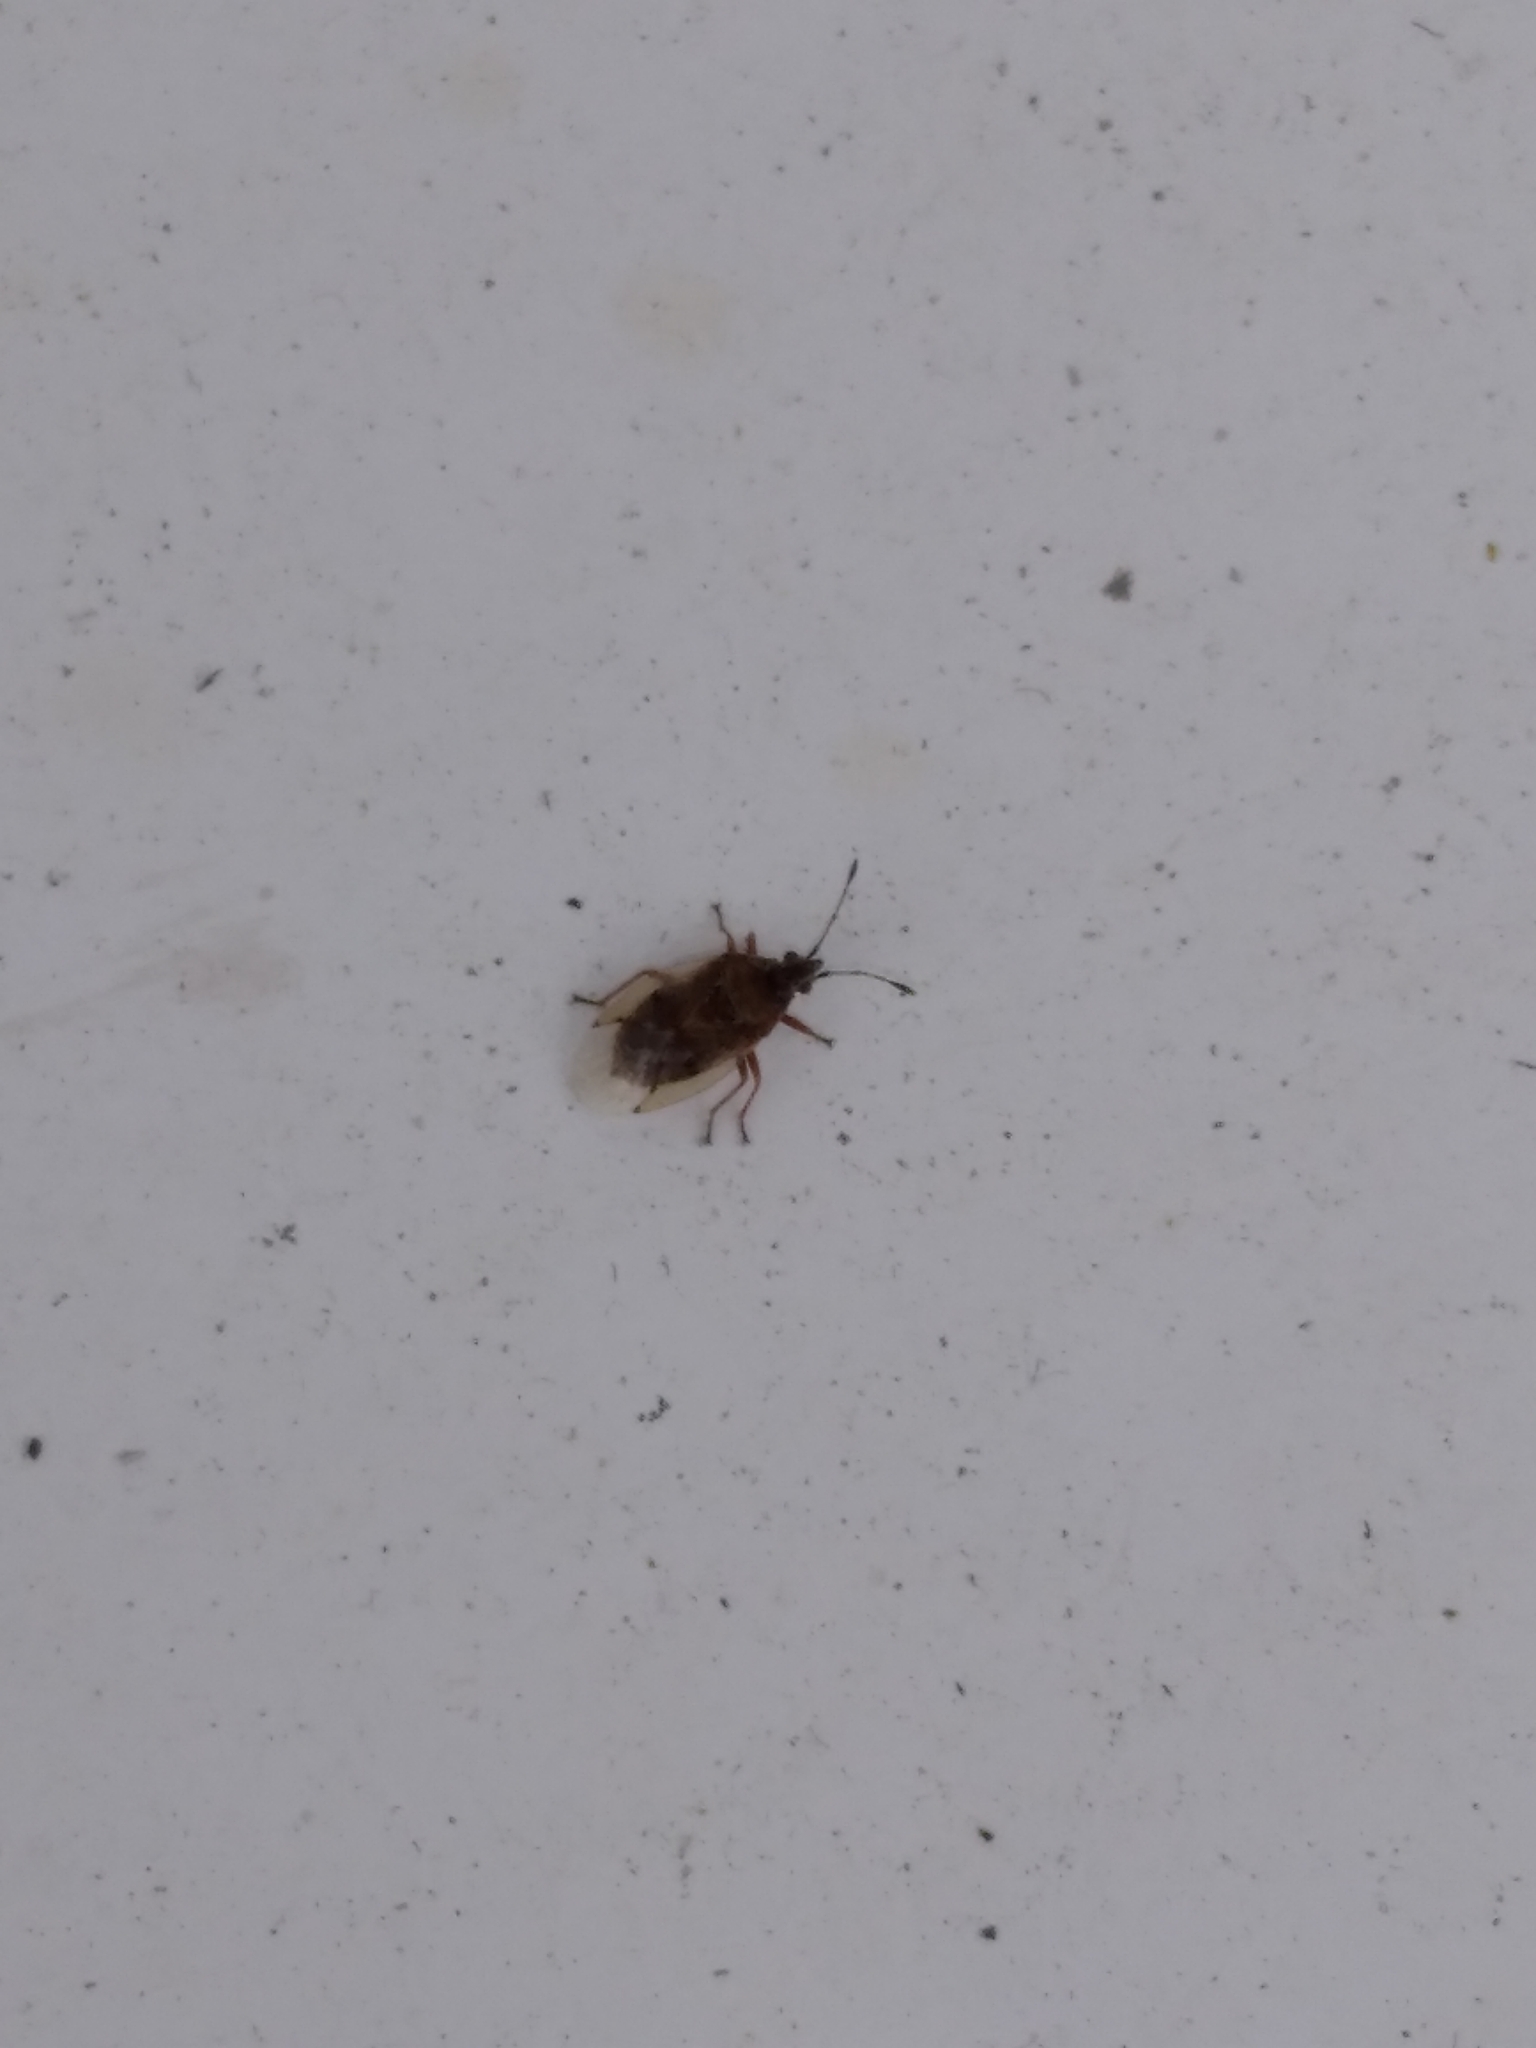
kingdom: Animalia
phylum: Arthropoda
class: Insecta
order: Hemiptera
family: Lygaeidae
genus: Kleidocerys
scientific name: Kleidocerys resedae
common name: Birch catkin bug
